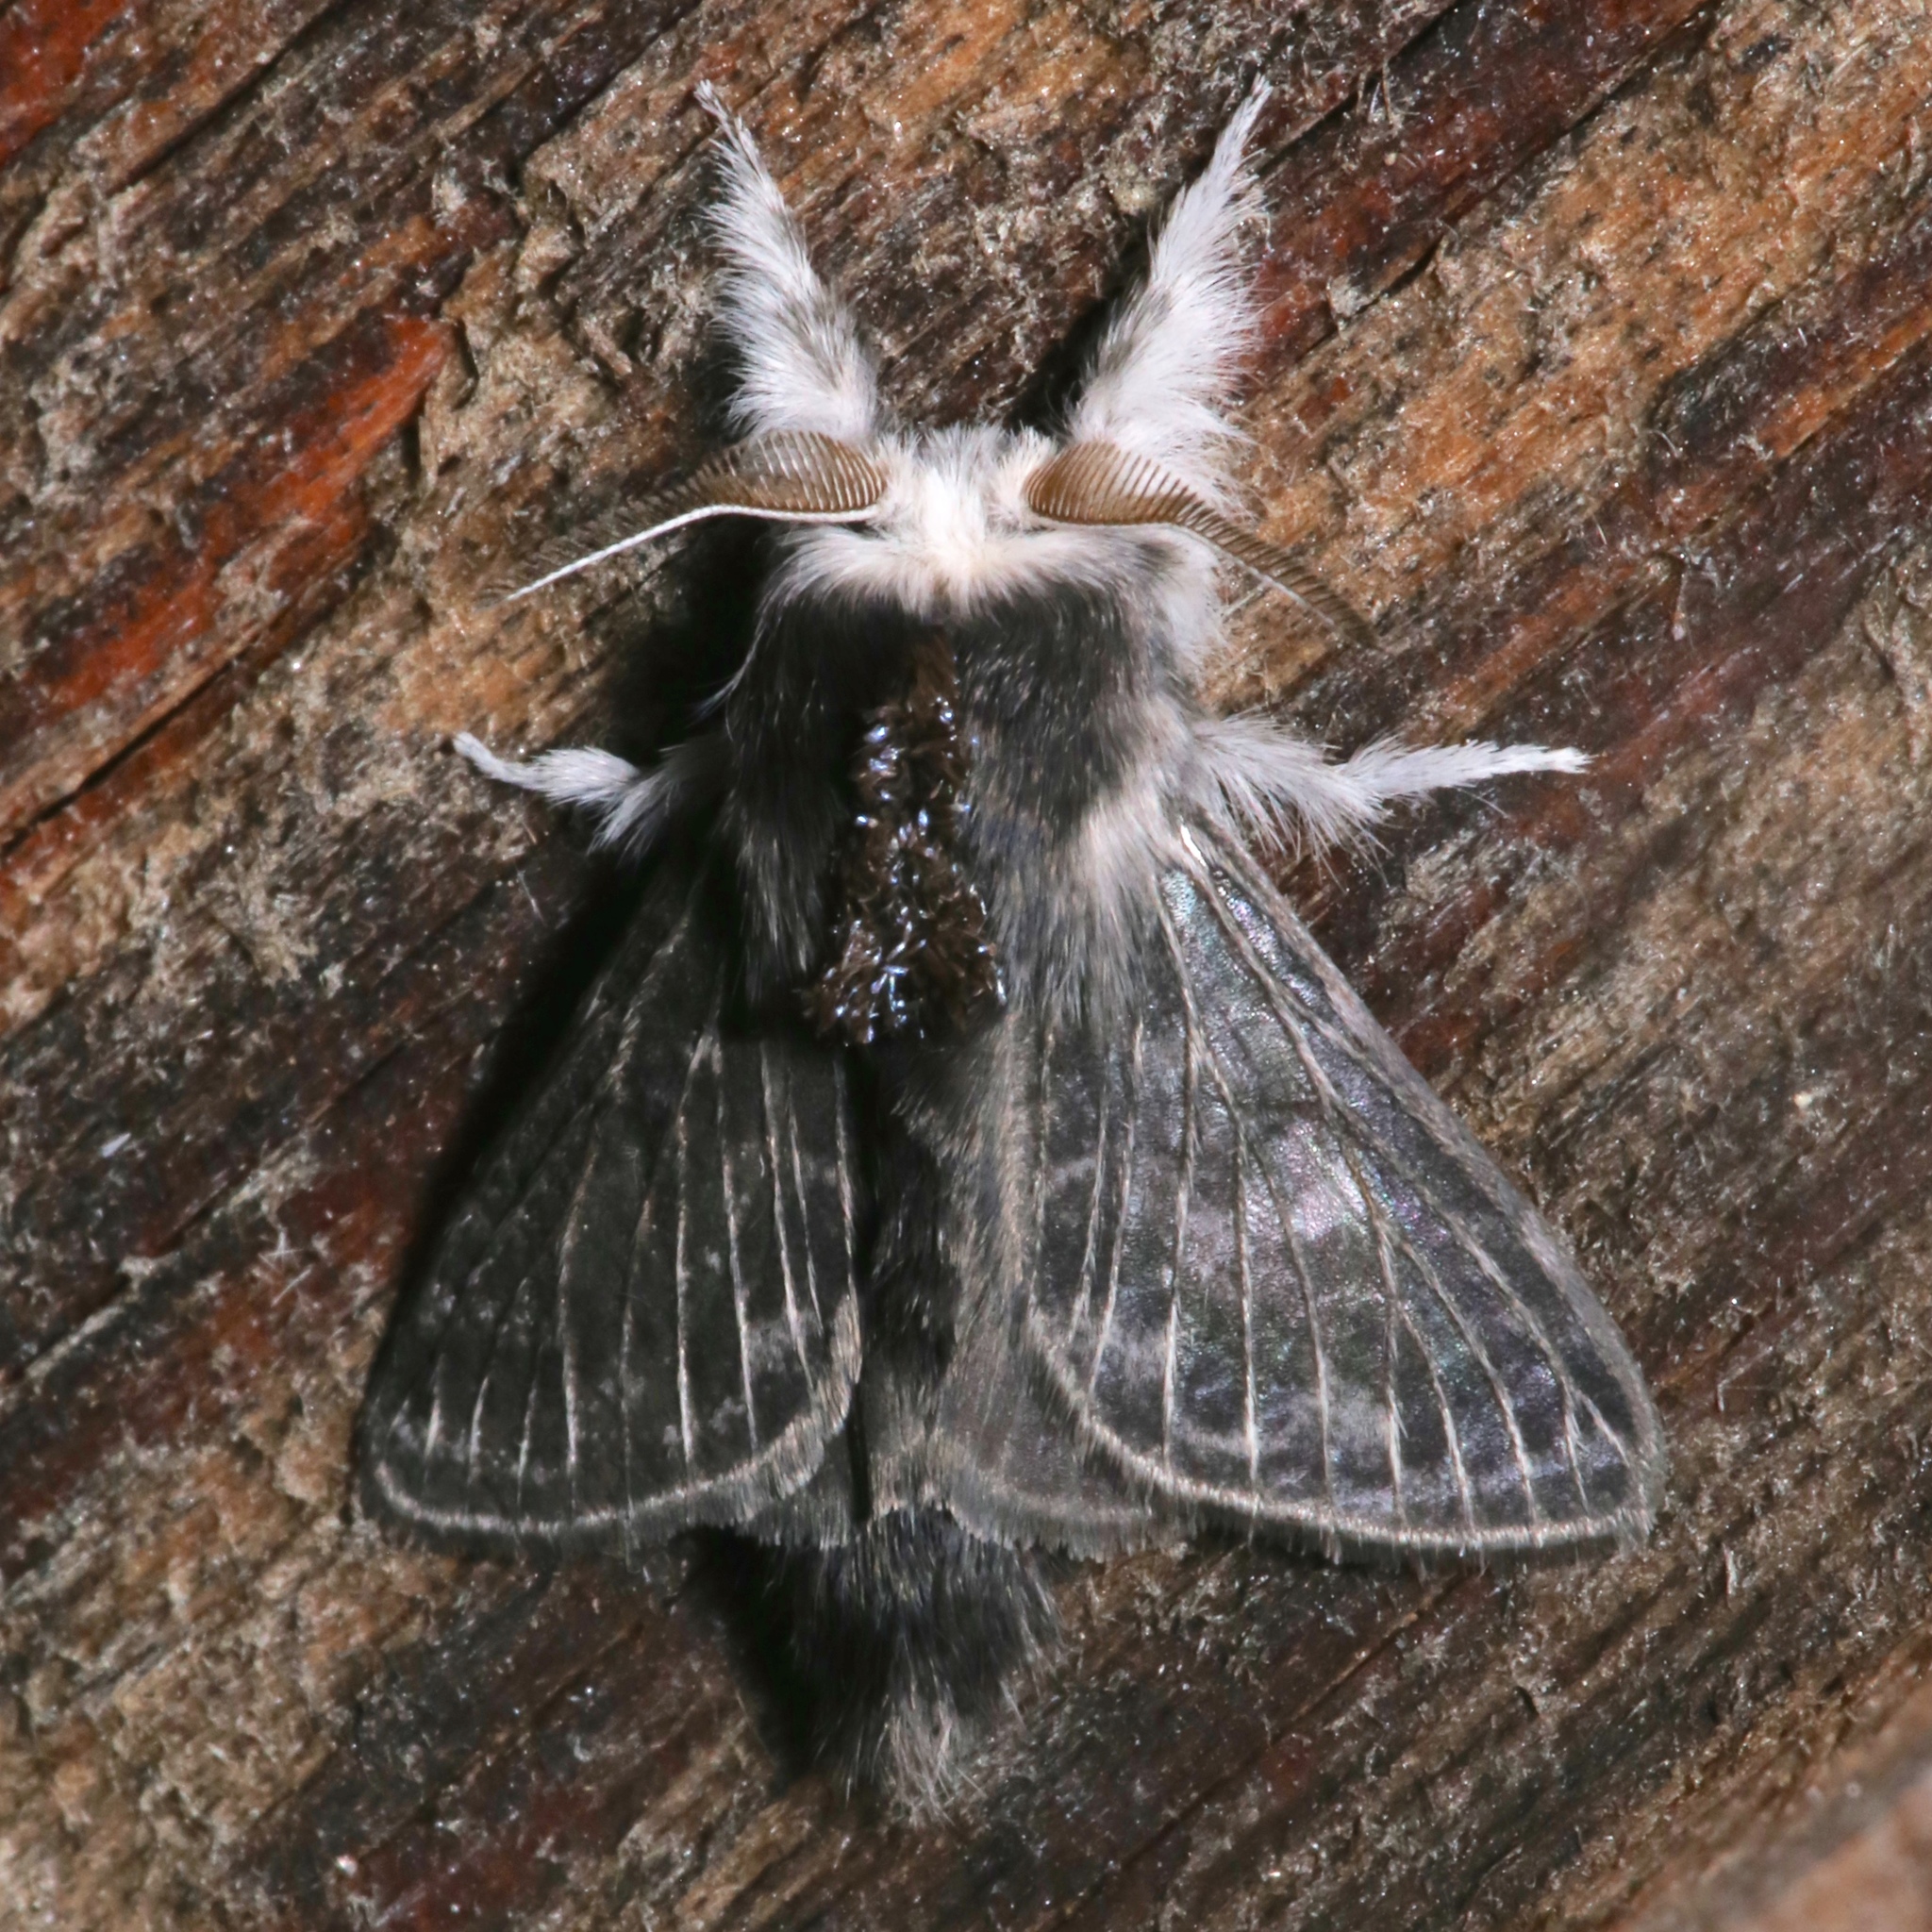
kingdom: Animalia
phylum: Arthropoda
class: Insecta
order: Lepidoptera
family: Lasiocampidae
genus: Tolype
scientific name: Tolype laricis
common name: Larch tolype moth
